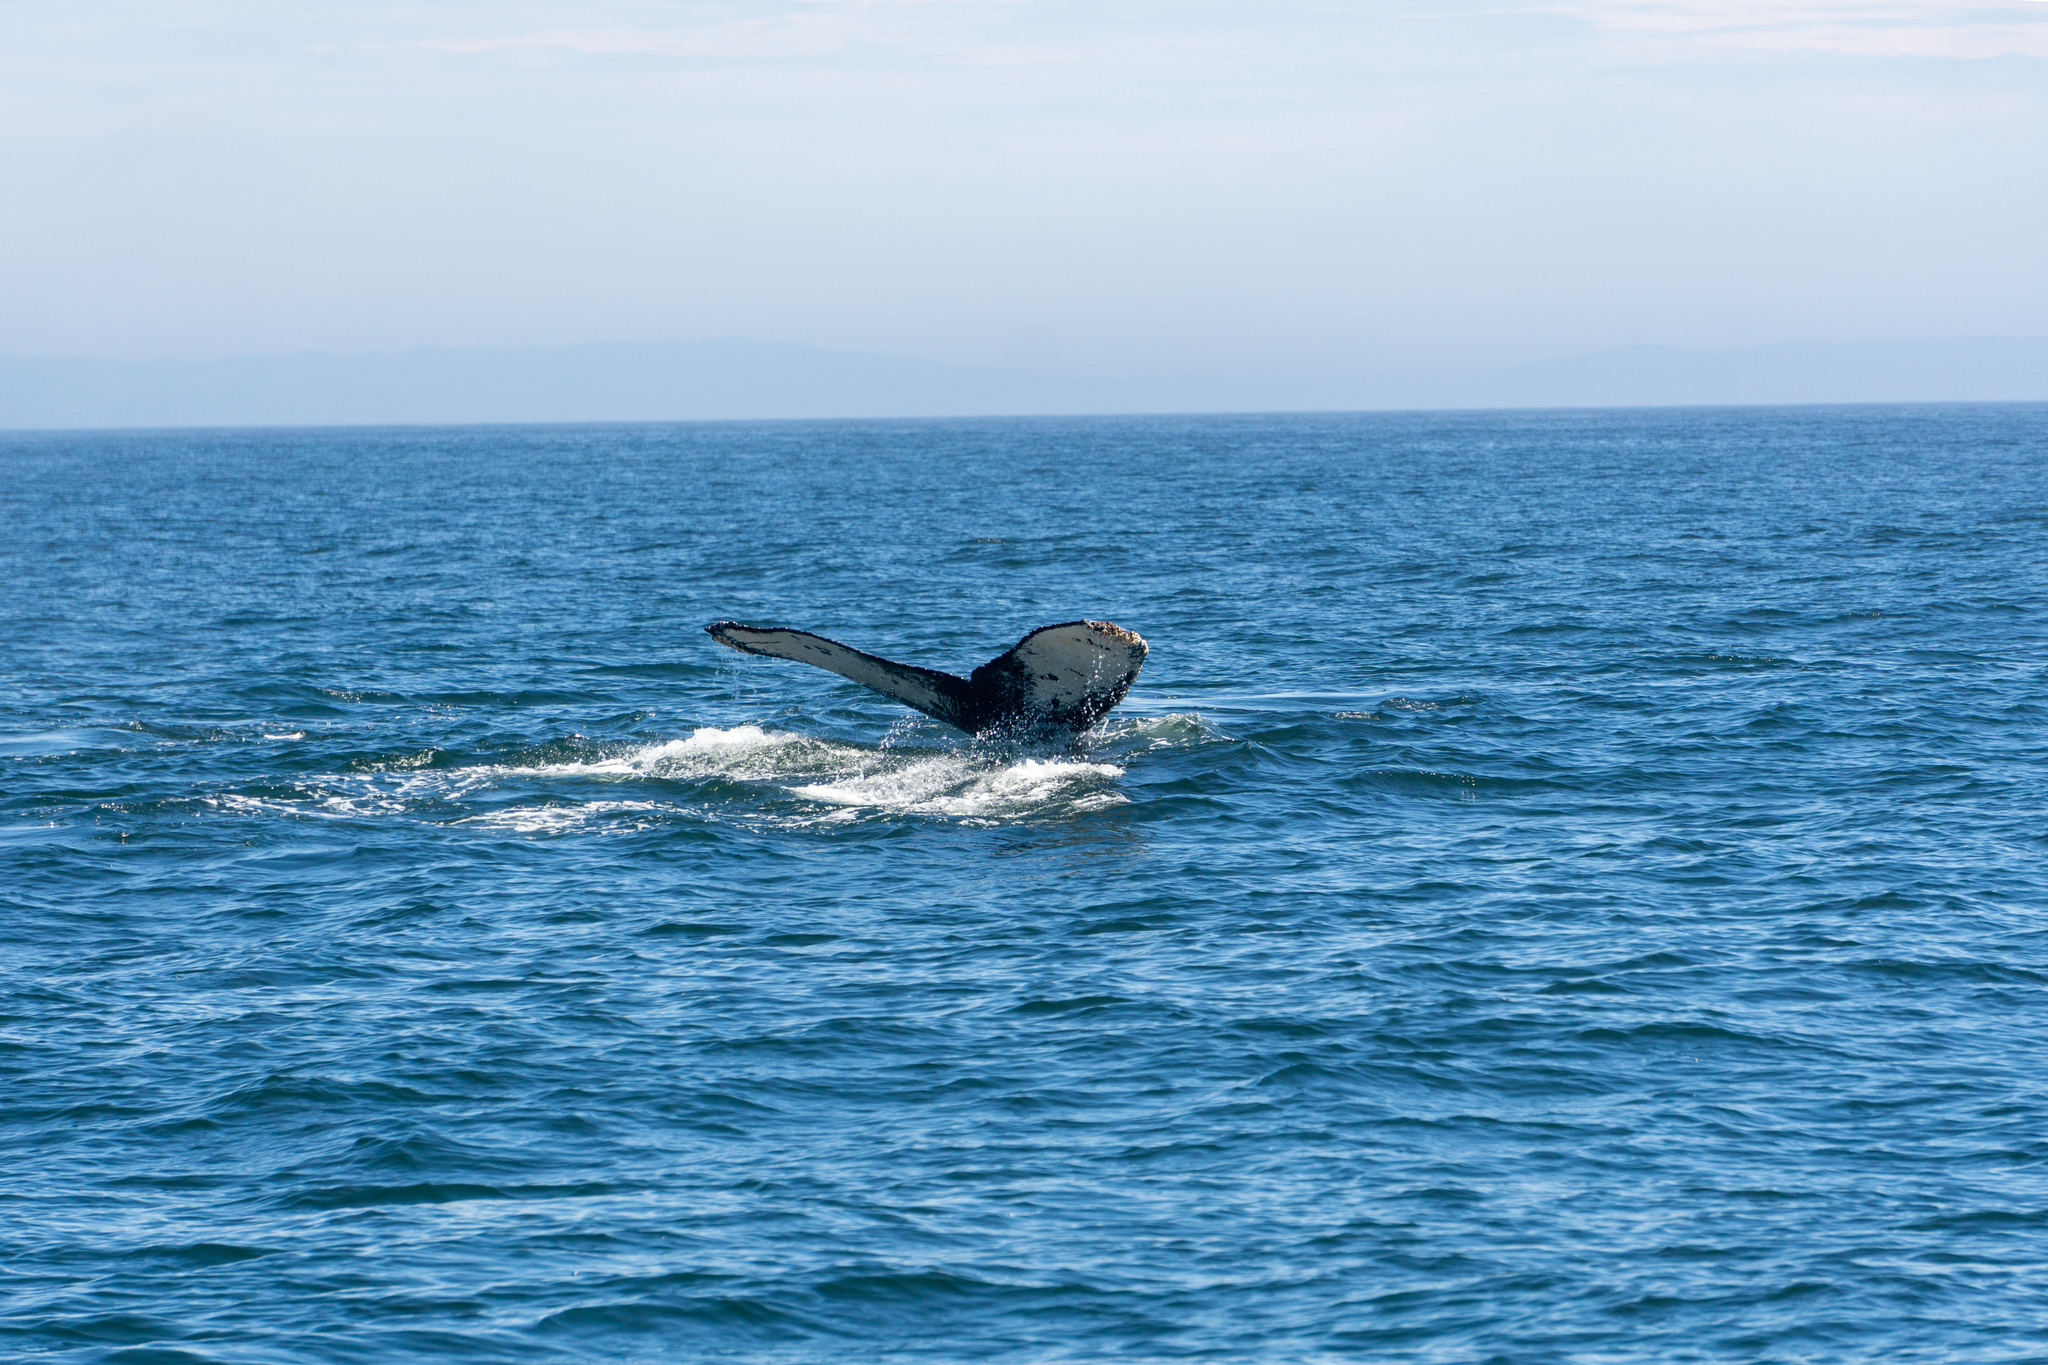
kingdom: Animalia
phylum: Chordata
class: Mammalia
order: Cetacea
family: Balaenopteridae
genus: Megaptera
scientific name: Megaptera novaeangliae
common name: Humpback whale
